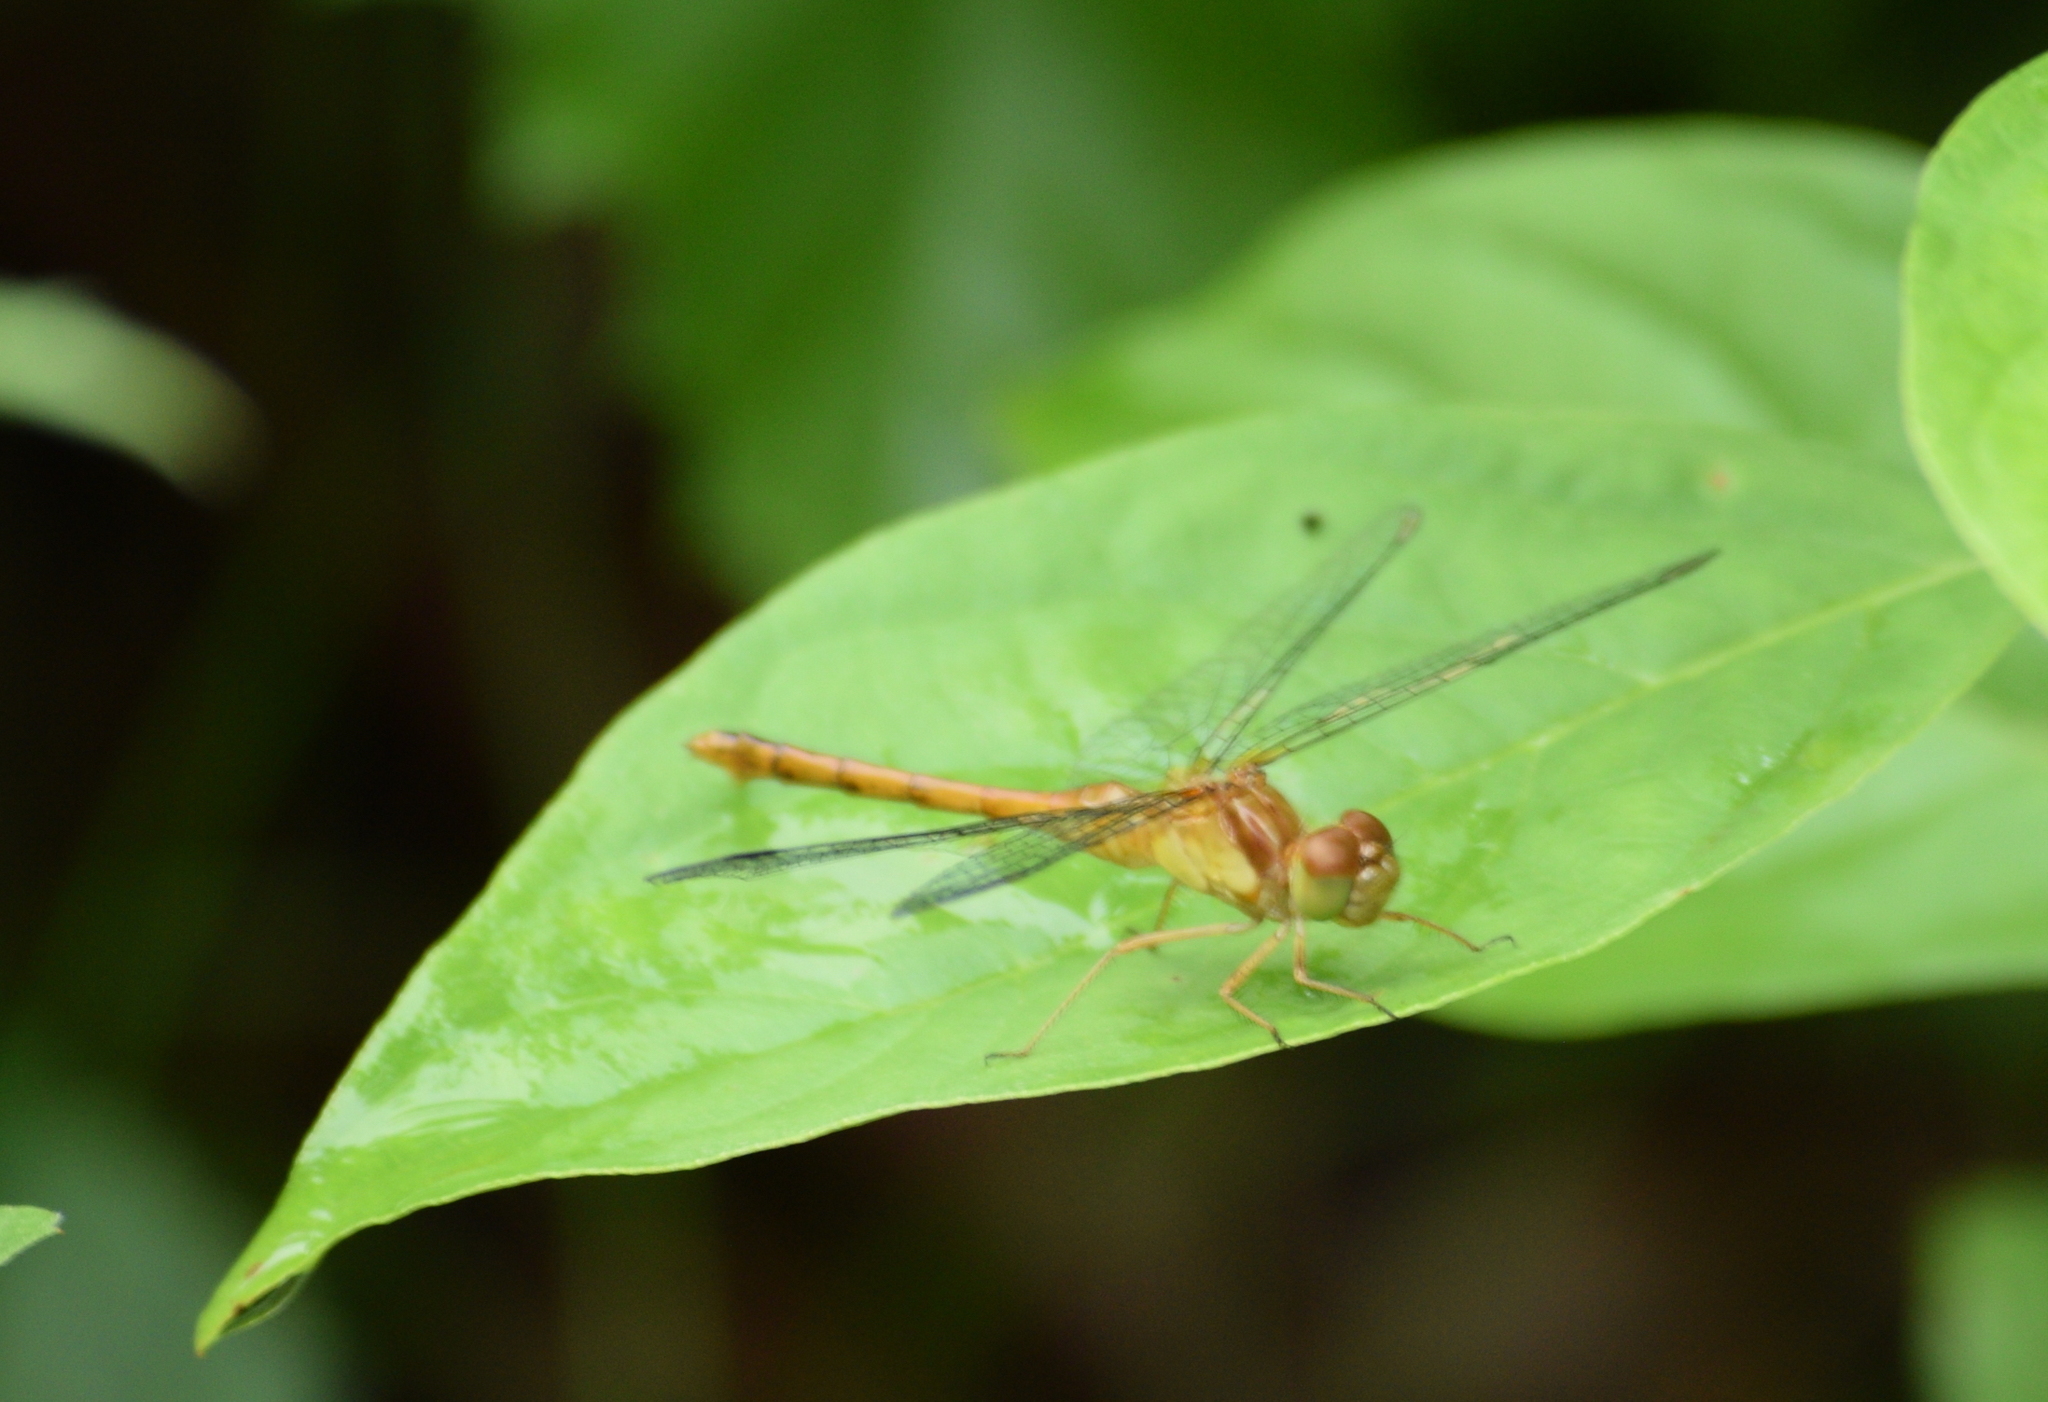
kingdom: Animalia
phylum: Arthropoda
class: Insecta
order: Odonata
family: Libellulidae
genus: Sympetrum
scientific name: Sympetrum vicinum
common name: Autumn meadowhawk
